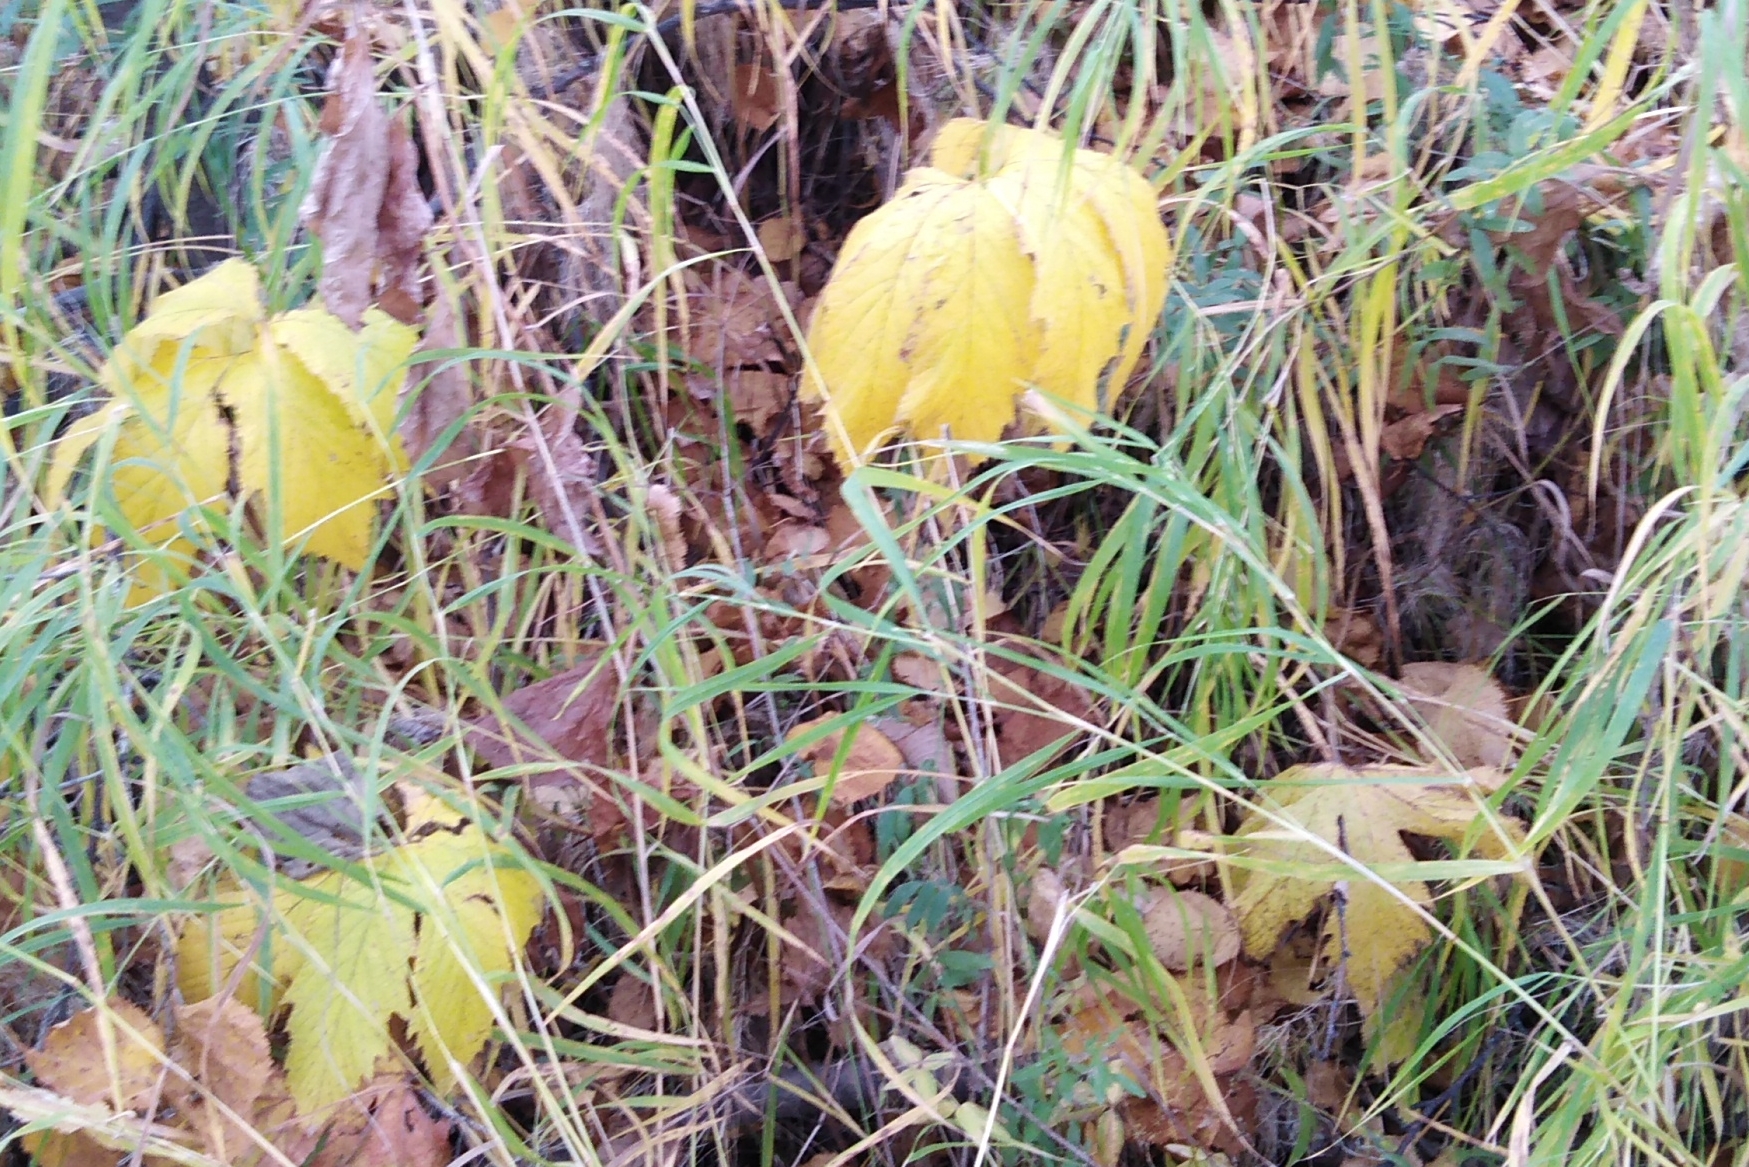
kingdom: Plantae
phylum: Tracheophyta
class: Magnoliopsida
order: Rosales
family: Rosaceae
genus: Filipendula
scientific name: Filipendula digitata
